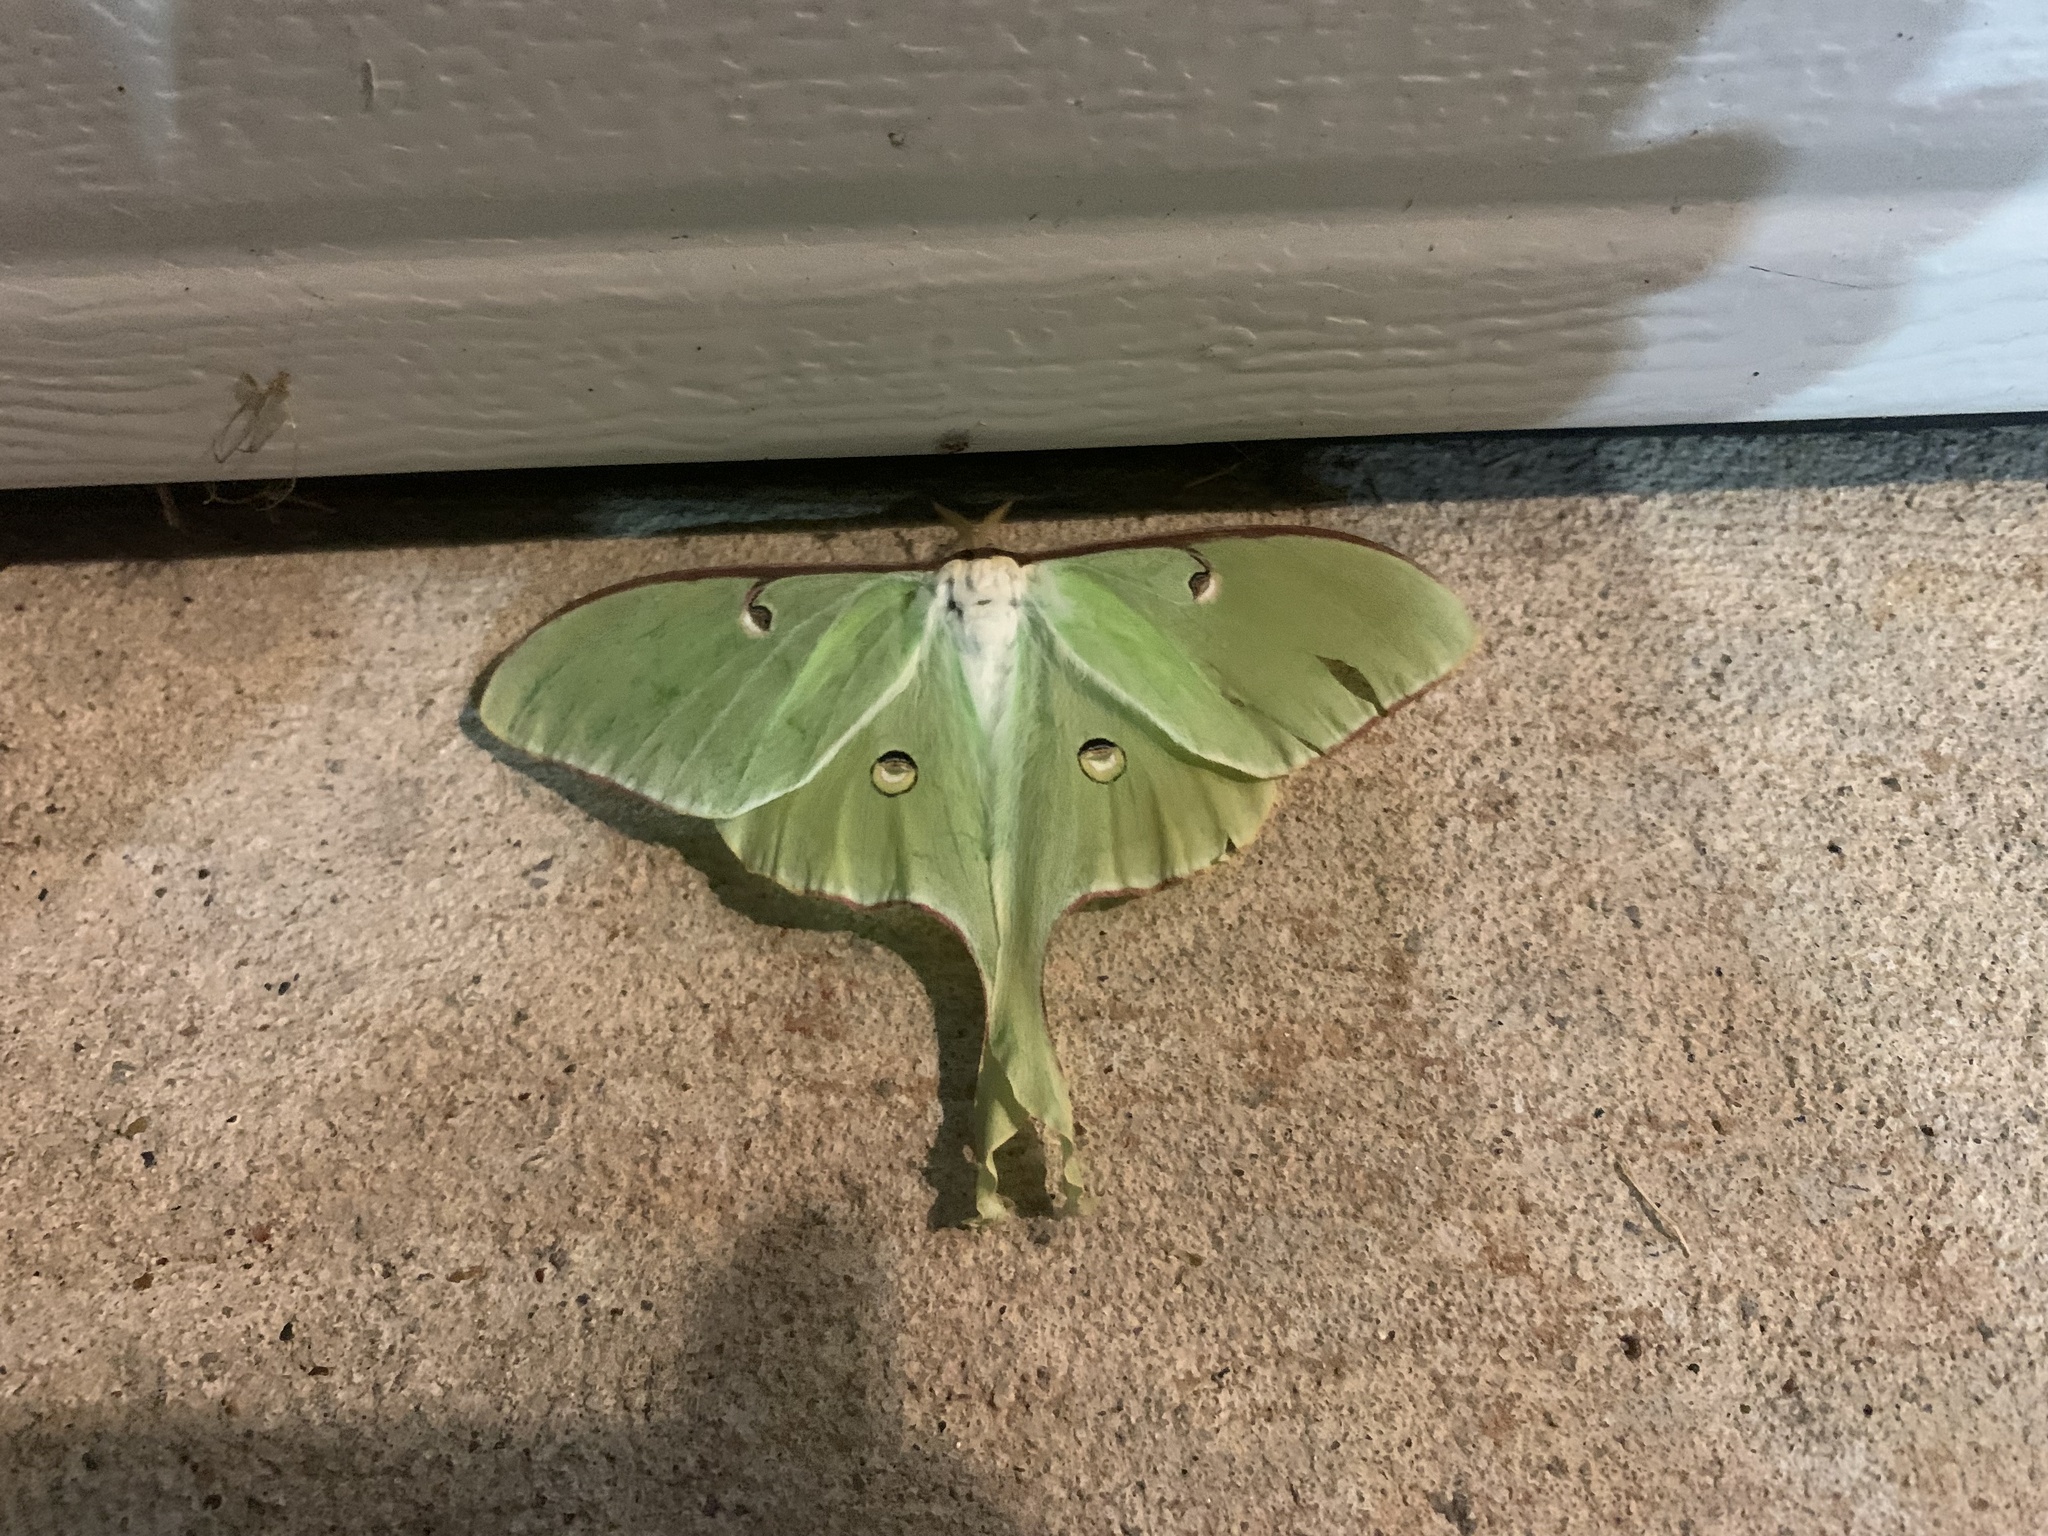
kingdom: Animalia
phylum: Arthropoda
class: Insecta
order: Lepidoptera
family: Saturniidae
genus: Actias
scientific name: Actias luna
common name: Luna moth
